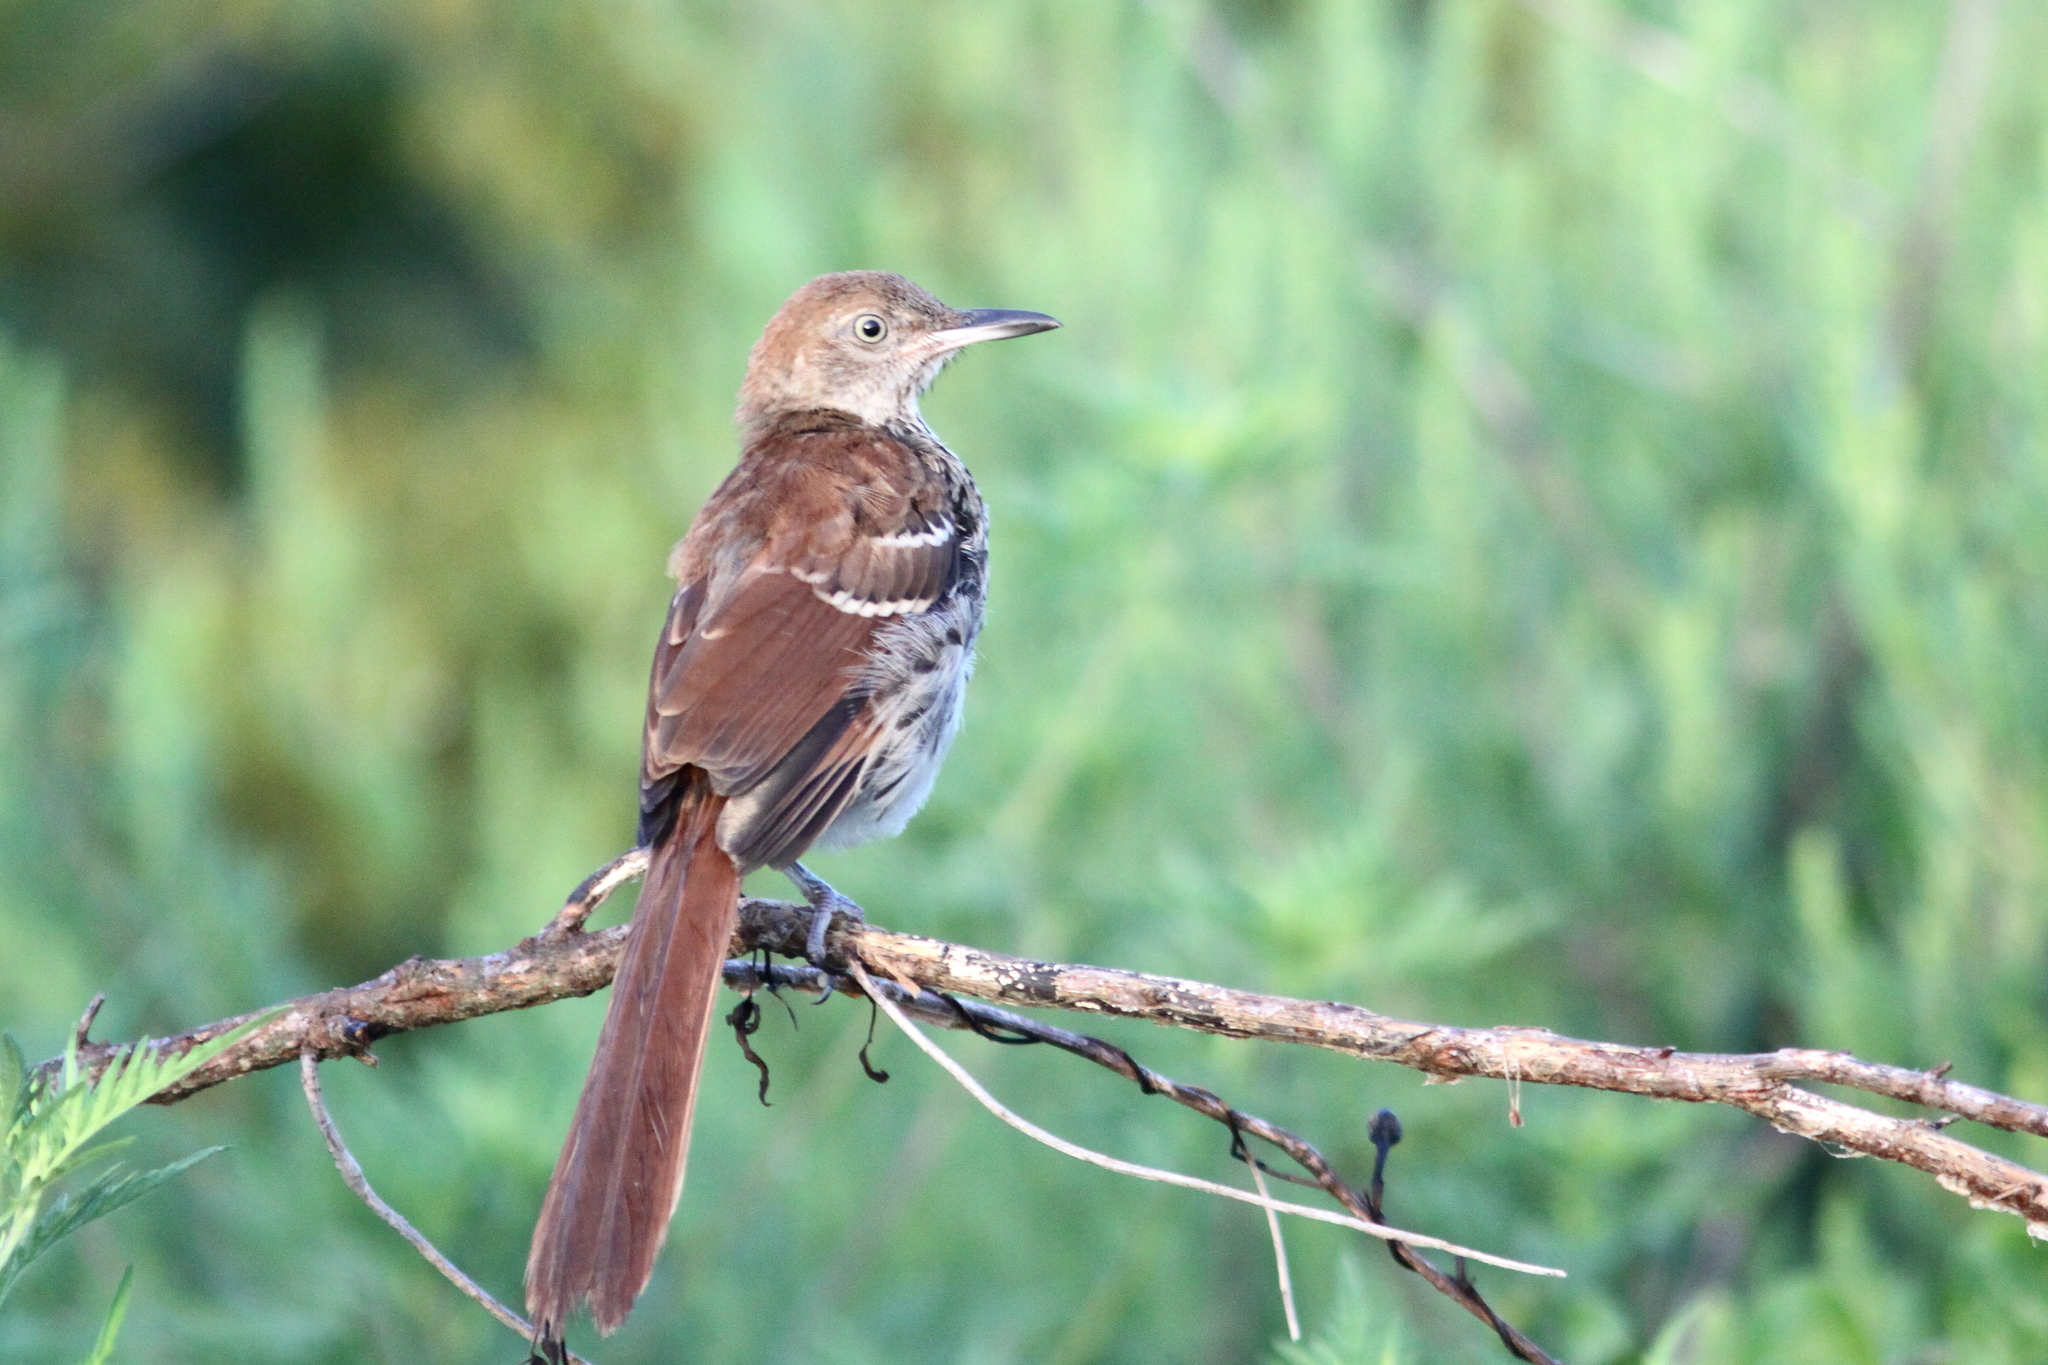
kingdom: Animalia
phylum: Chordata
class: Aves
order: Passeriformes
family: Mimidae
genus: Toxostoma
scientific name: Toxostoma rufum
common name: Brown thrasher
